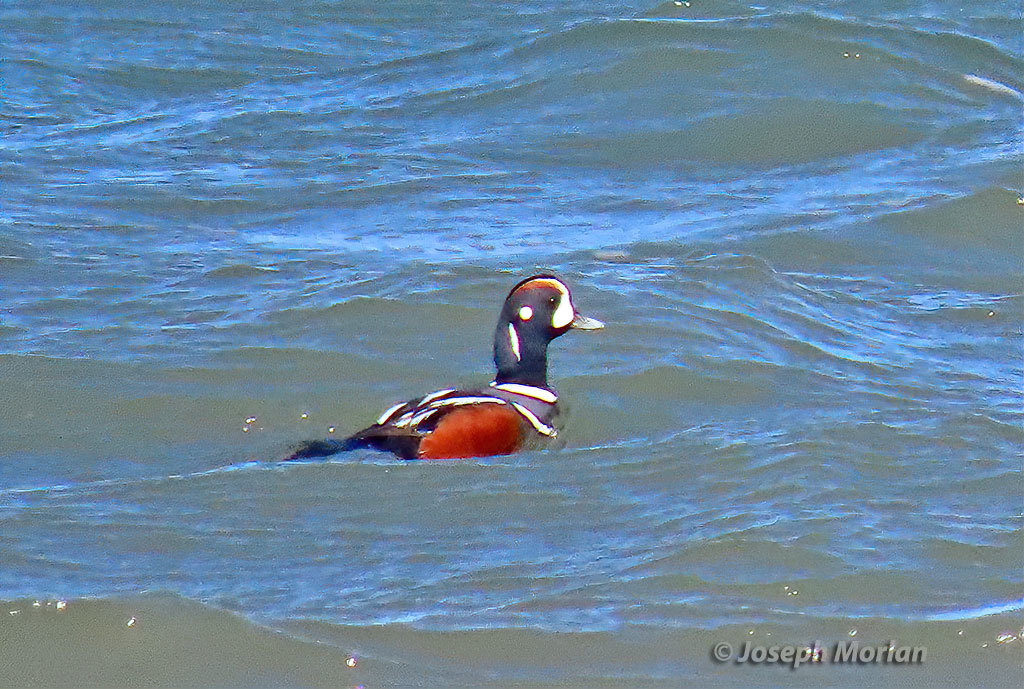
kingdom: Animalia
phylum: Chordata
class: Aves
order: Anseriformes
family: Anatidae
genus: Histrionicus
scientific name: Histrionicus histrionicus
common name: Harlequin duck
